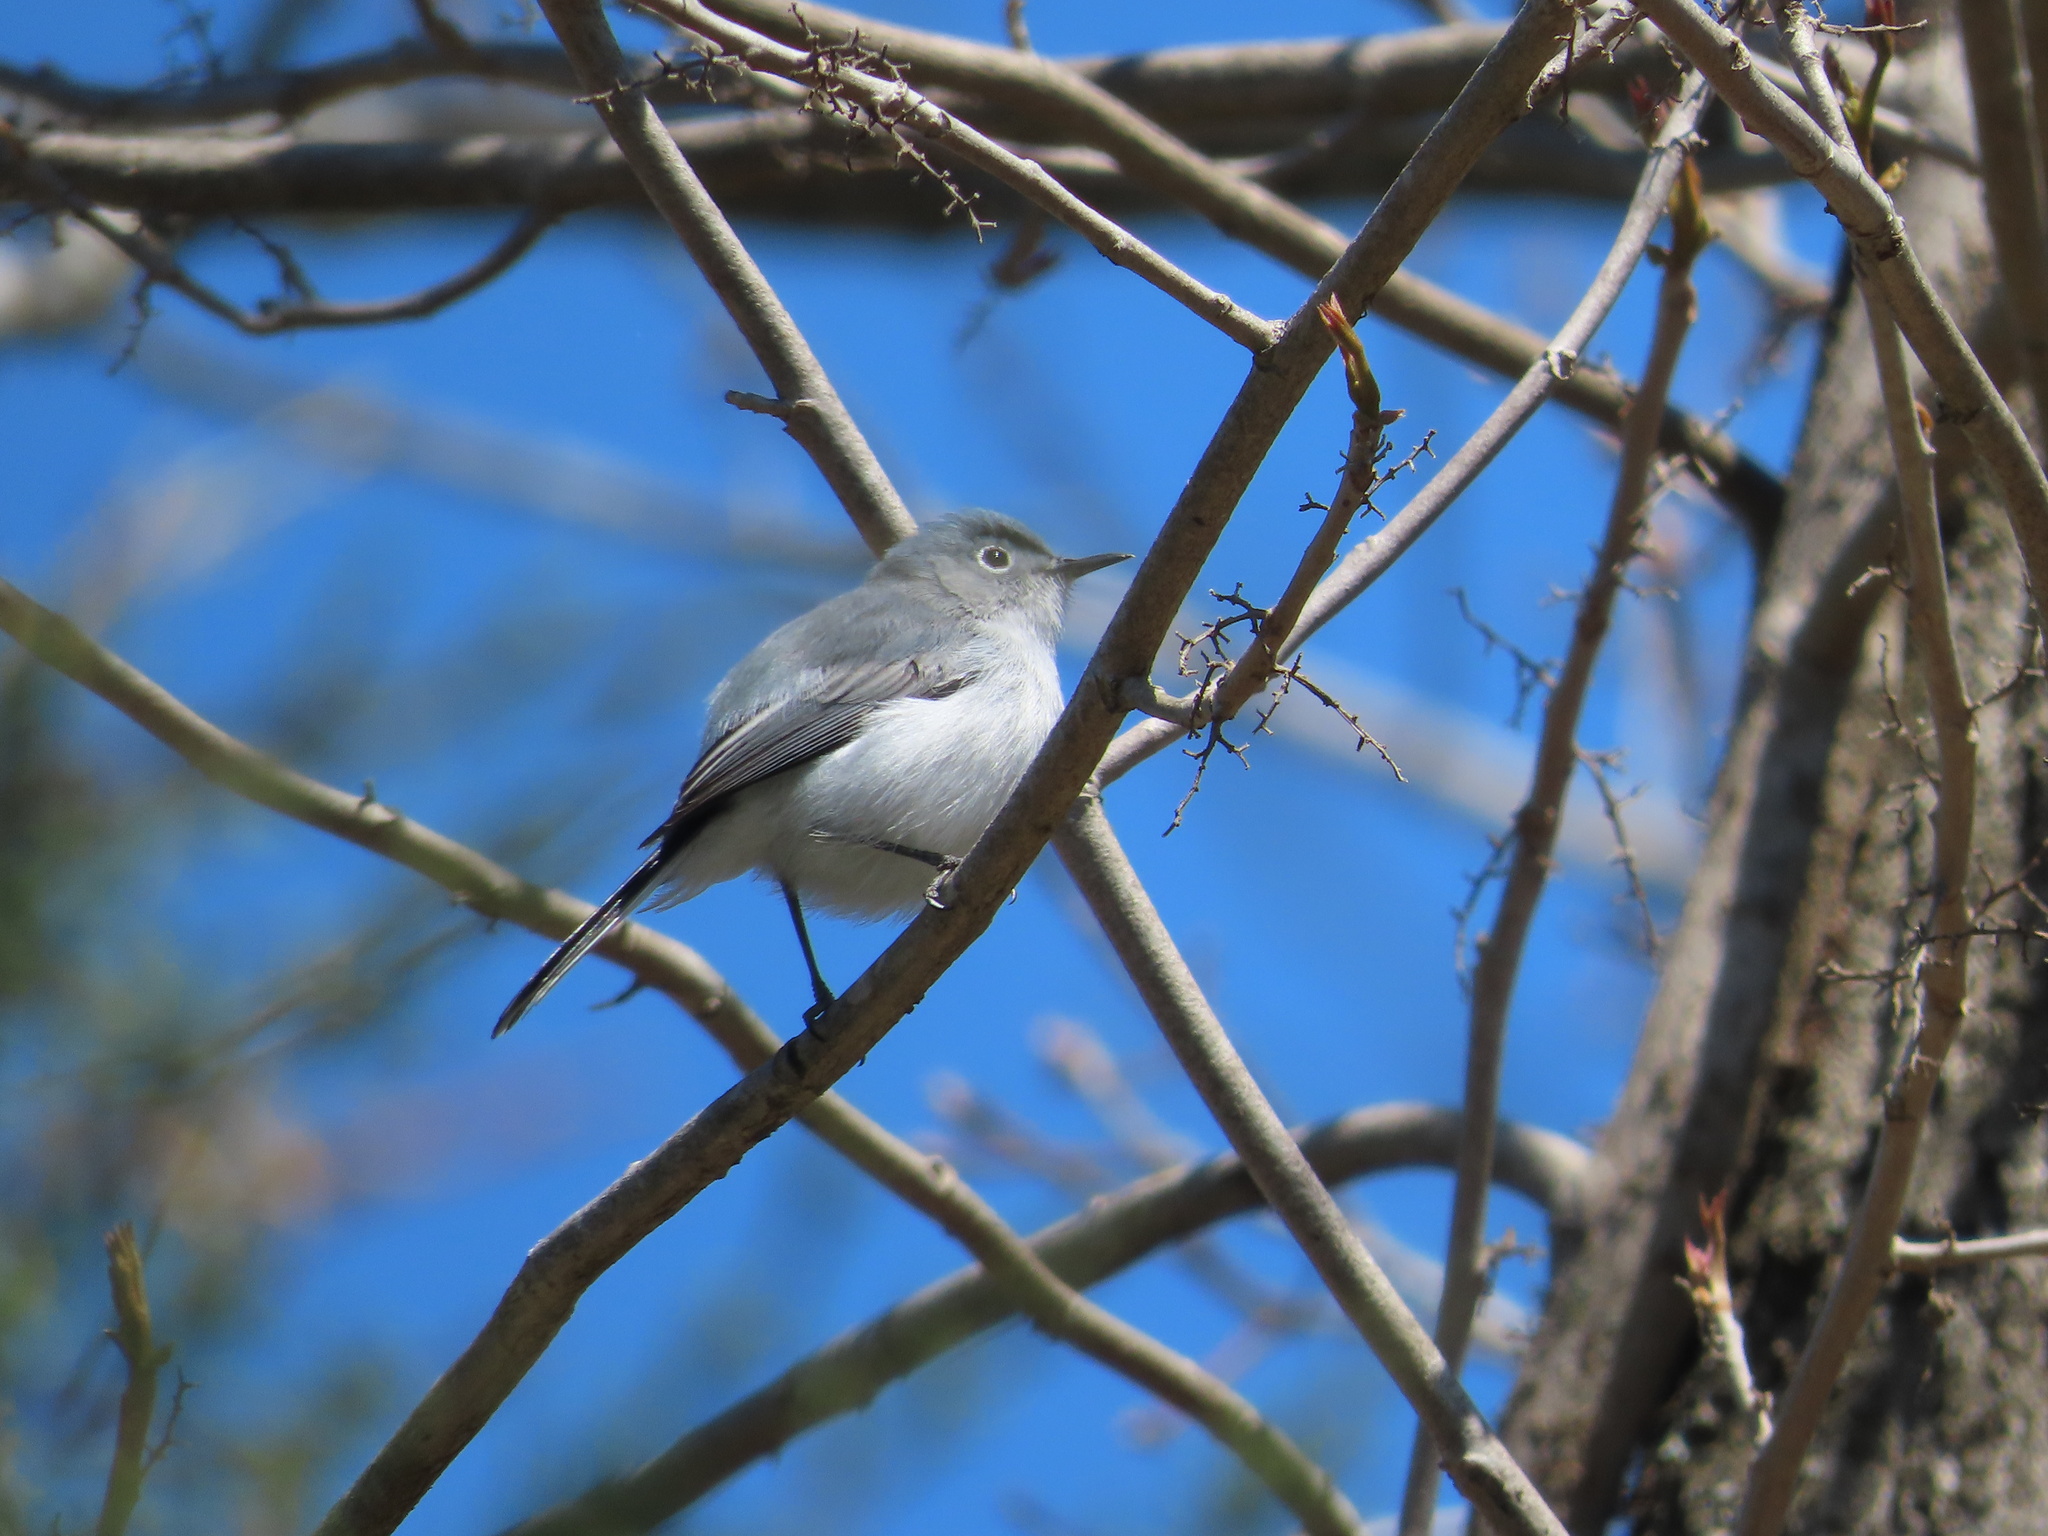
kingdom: Animalia
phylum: Chordata
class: Aves
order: Passeriformes
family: Polioptilidae
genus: Polioptila
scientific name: Polioptila caerulea
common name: Blue-gray gnatcatcher
